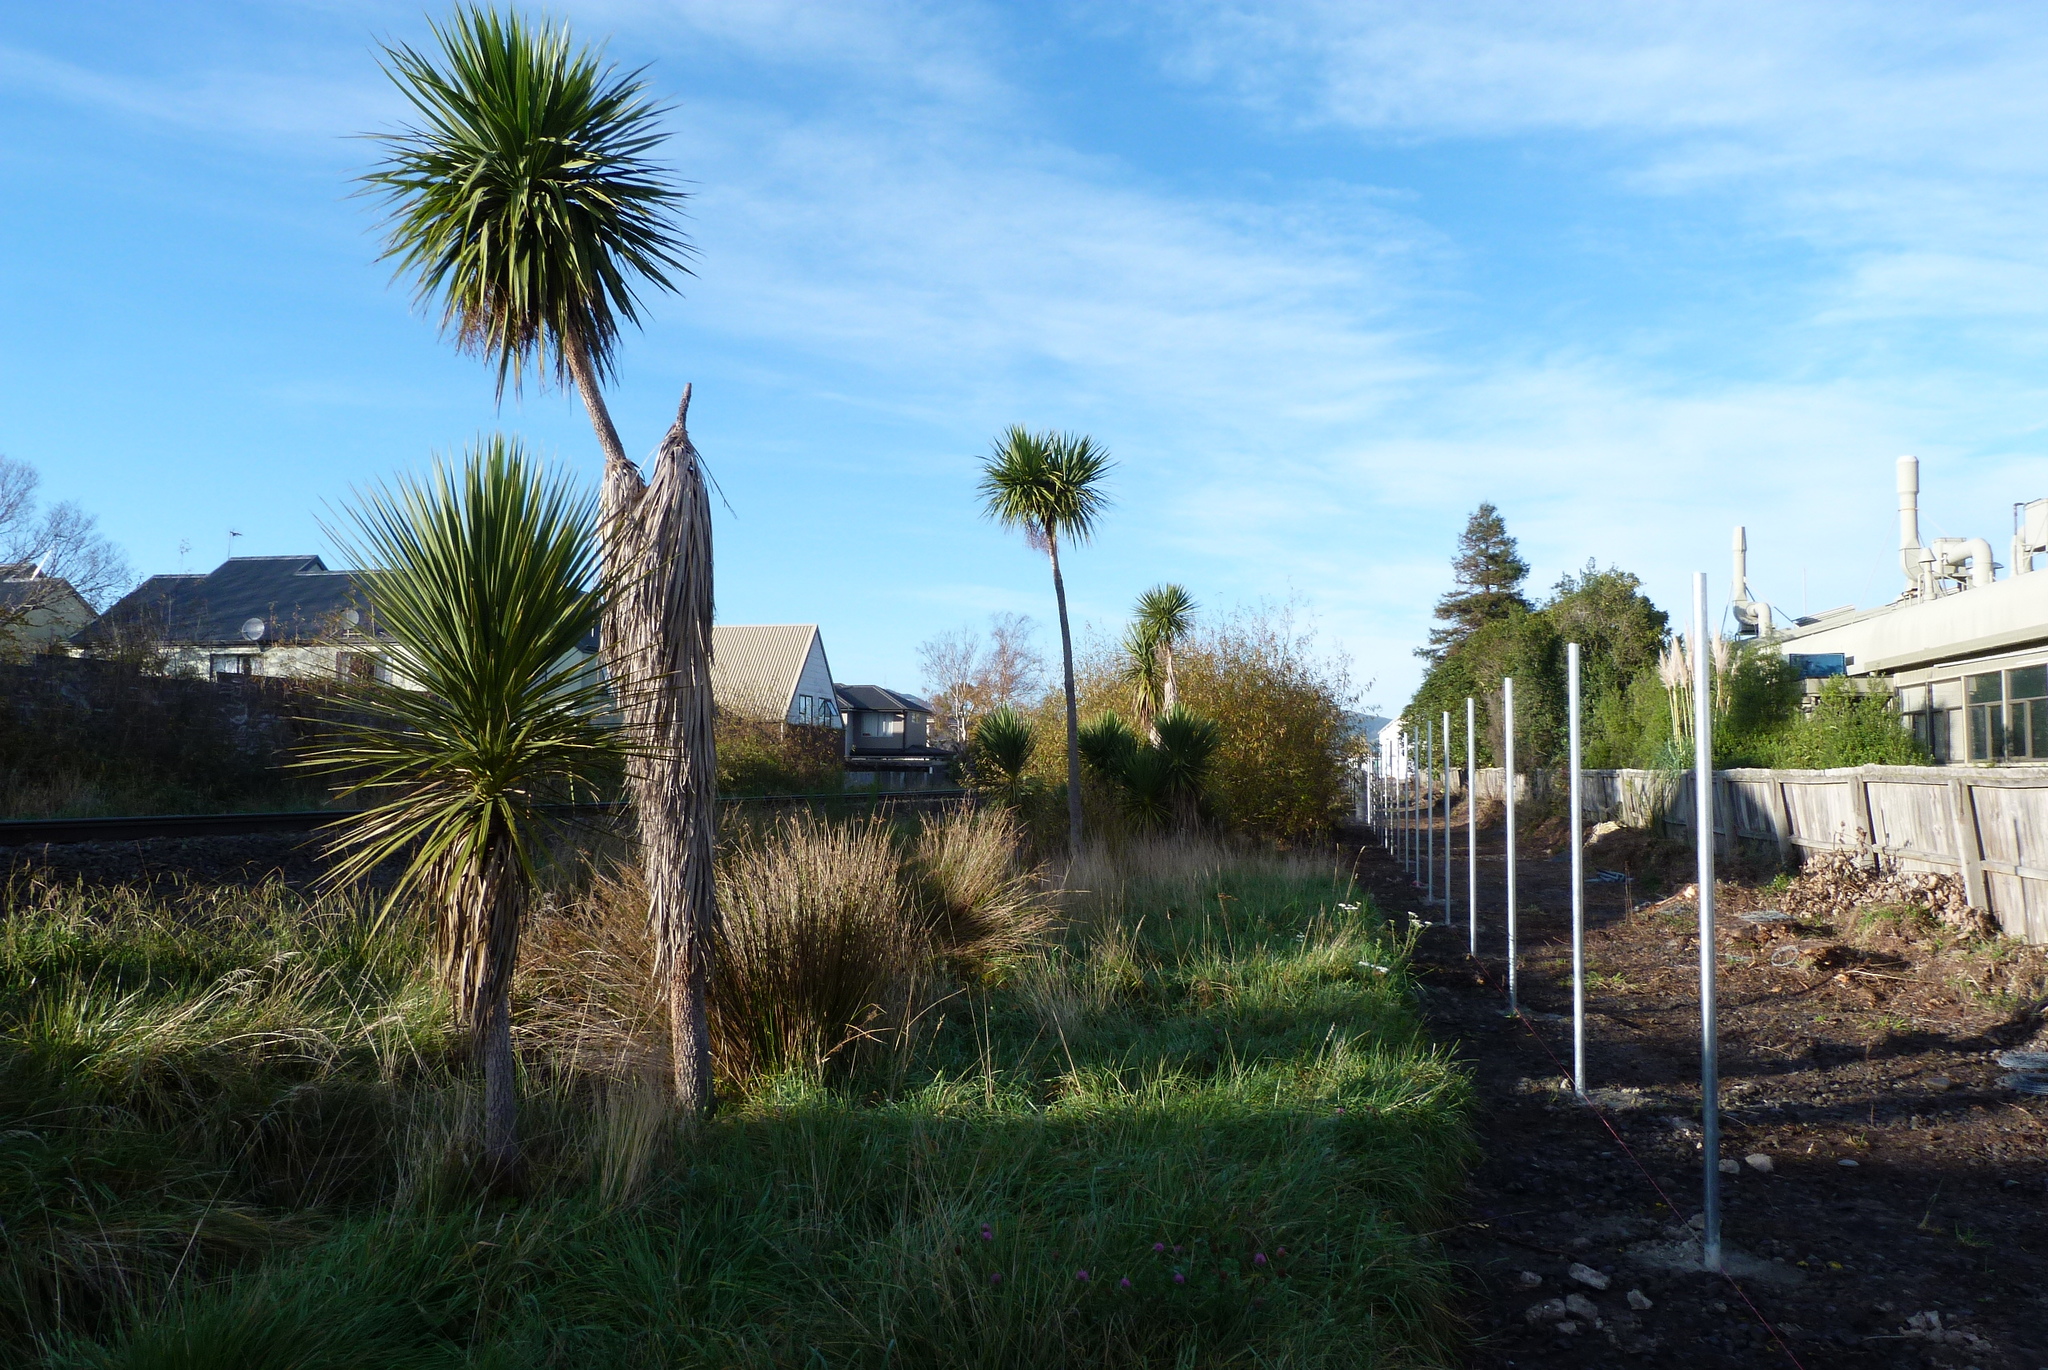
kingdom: Plantae
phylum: Tracheophyta
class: Liliopsida
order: Asparagales
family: Asparagaceae
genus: Cordyline
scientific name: Cordyline australis
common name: Cabbage-palm
